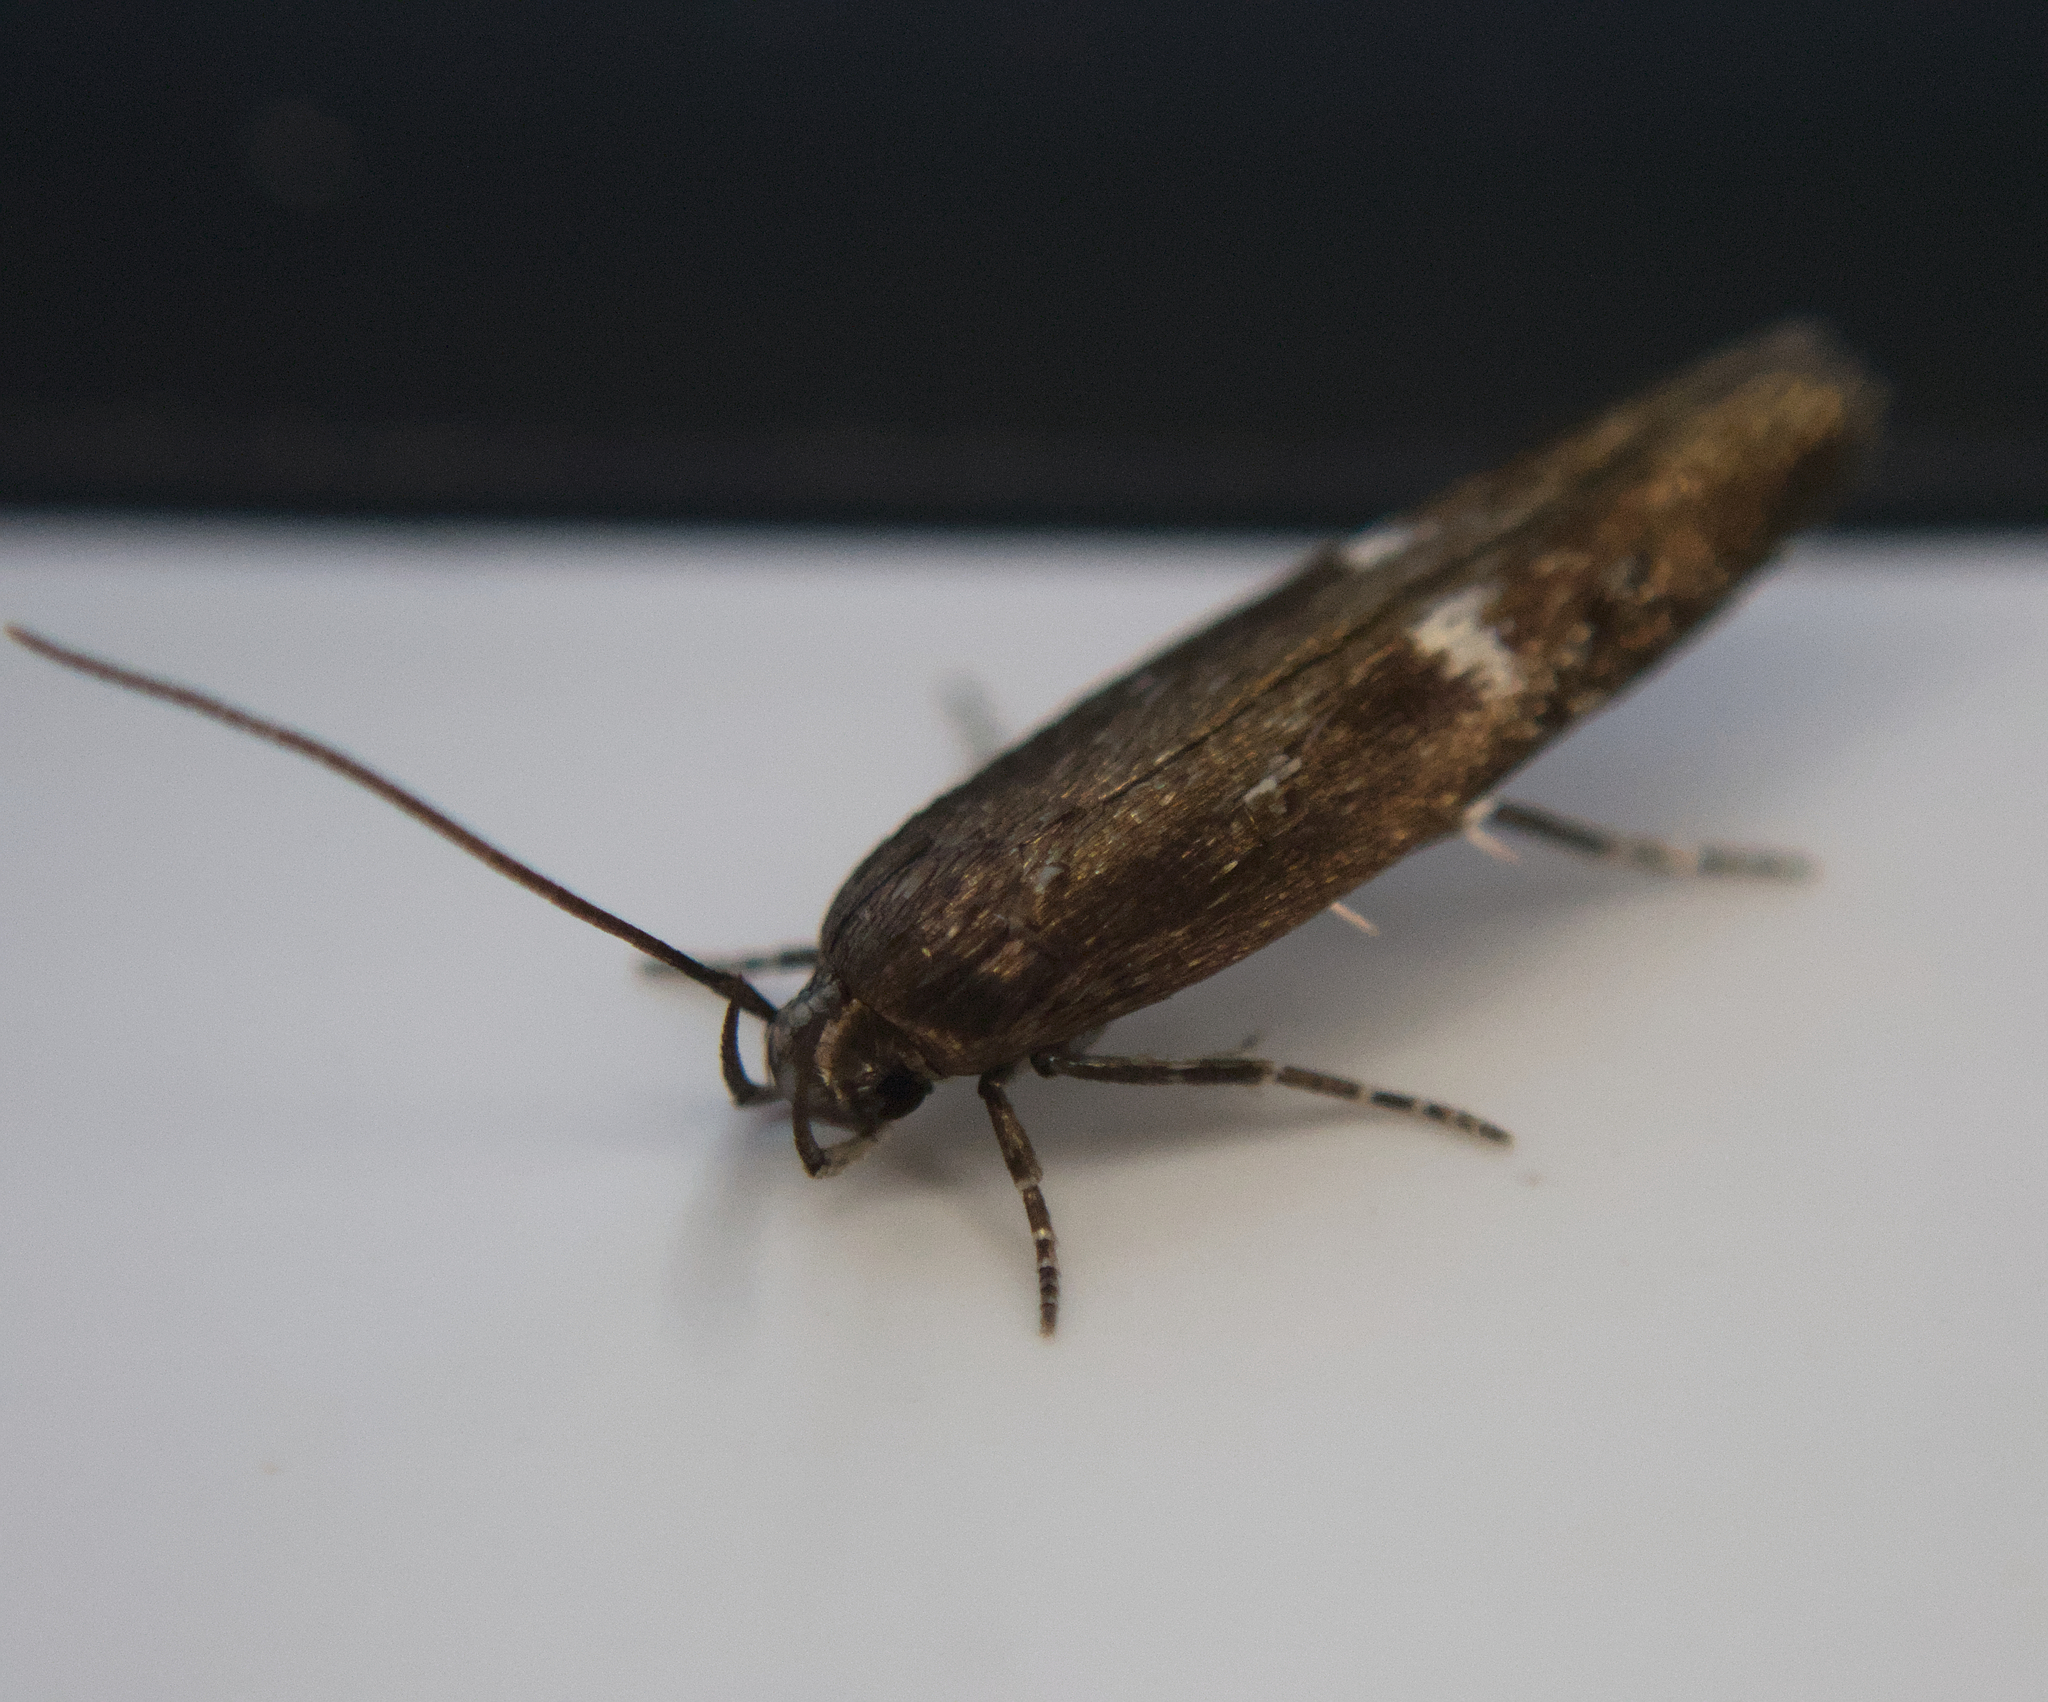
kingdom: Animalia
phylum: Arthropoda
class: Insecta
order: Lepidoptera
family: Momphidae
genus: Mompha
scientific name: Mompha langiella
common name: Clouded cosmet
